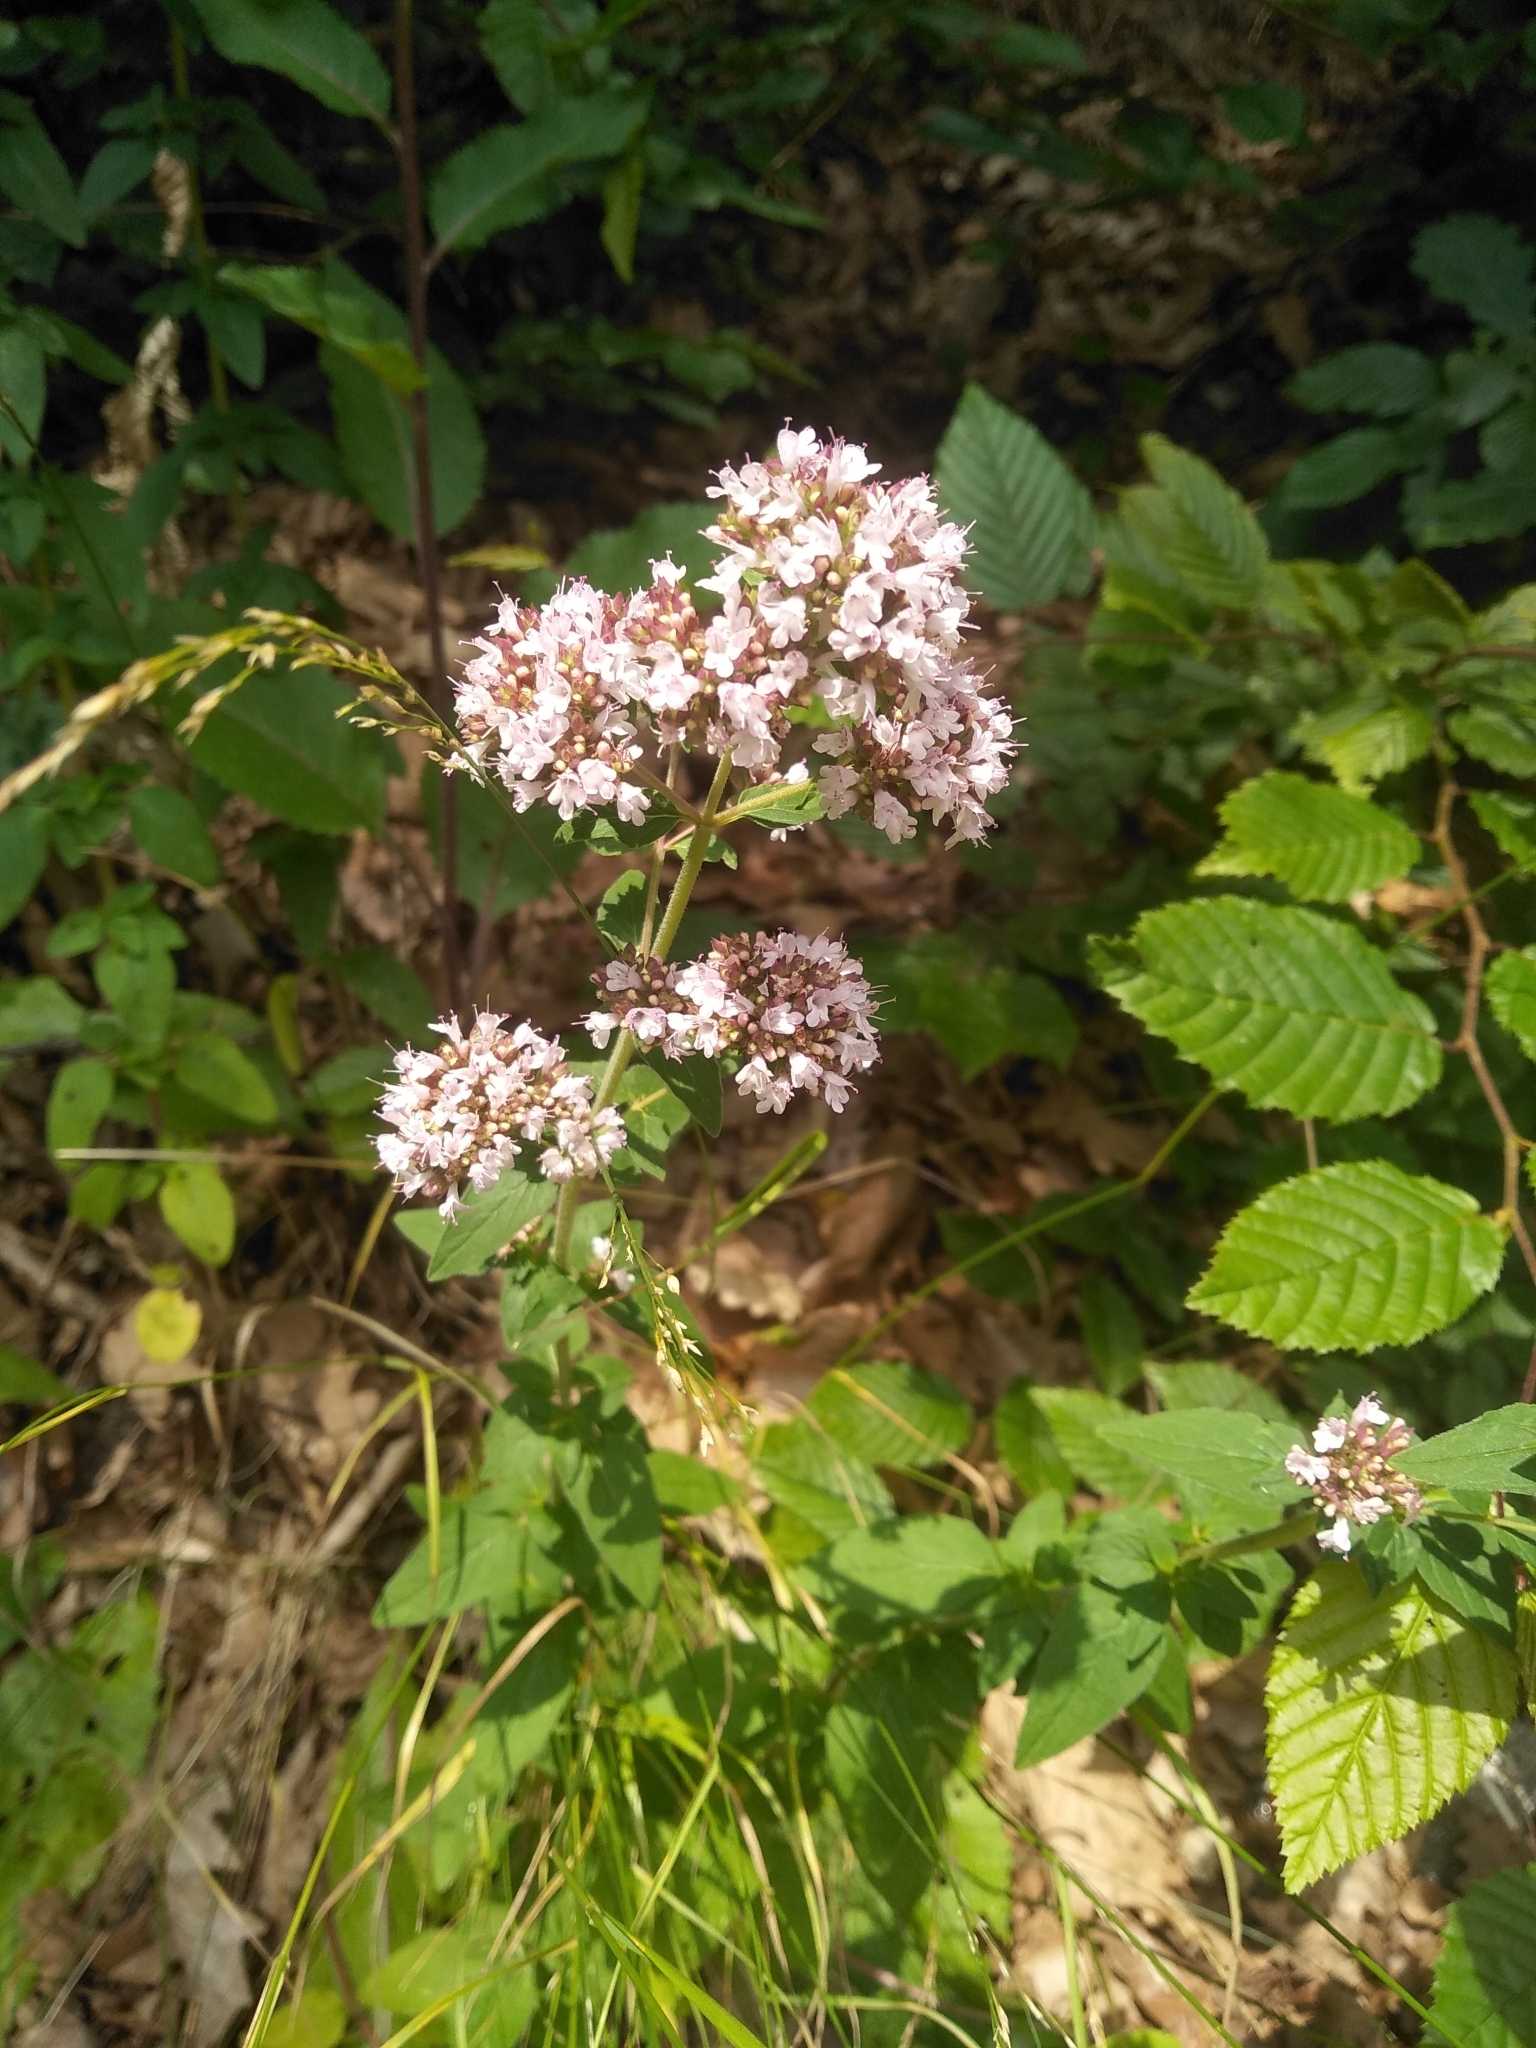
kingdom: Plantae
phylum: Tracheophyta
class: Magnoliopsida
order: Lamiales
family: Lamiaceae
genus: Origanum
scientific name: Origanum vulgare
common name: Wild marjoram
